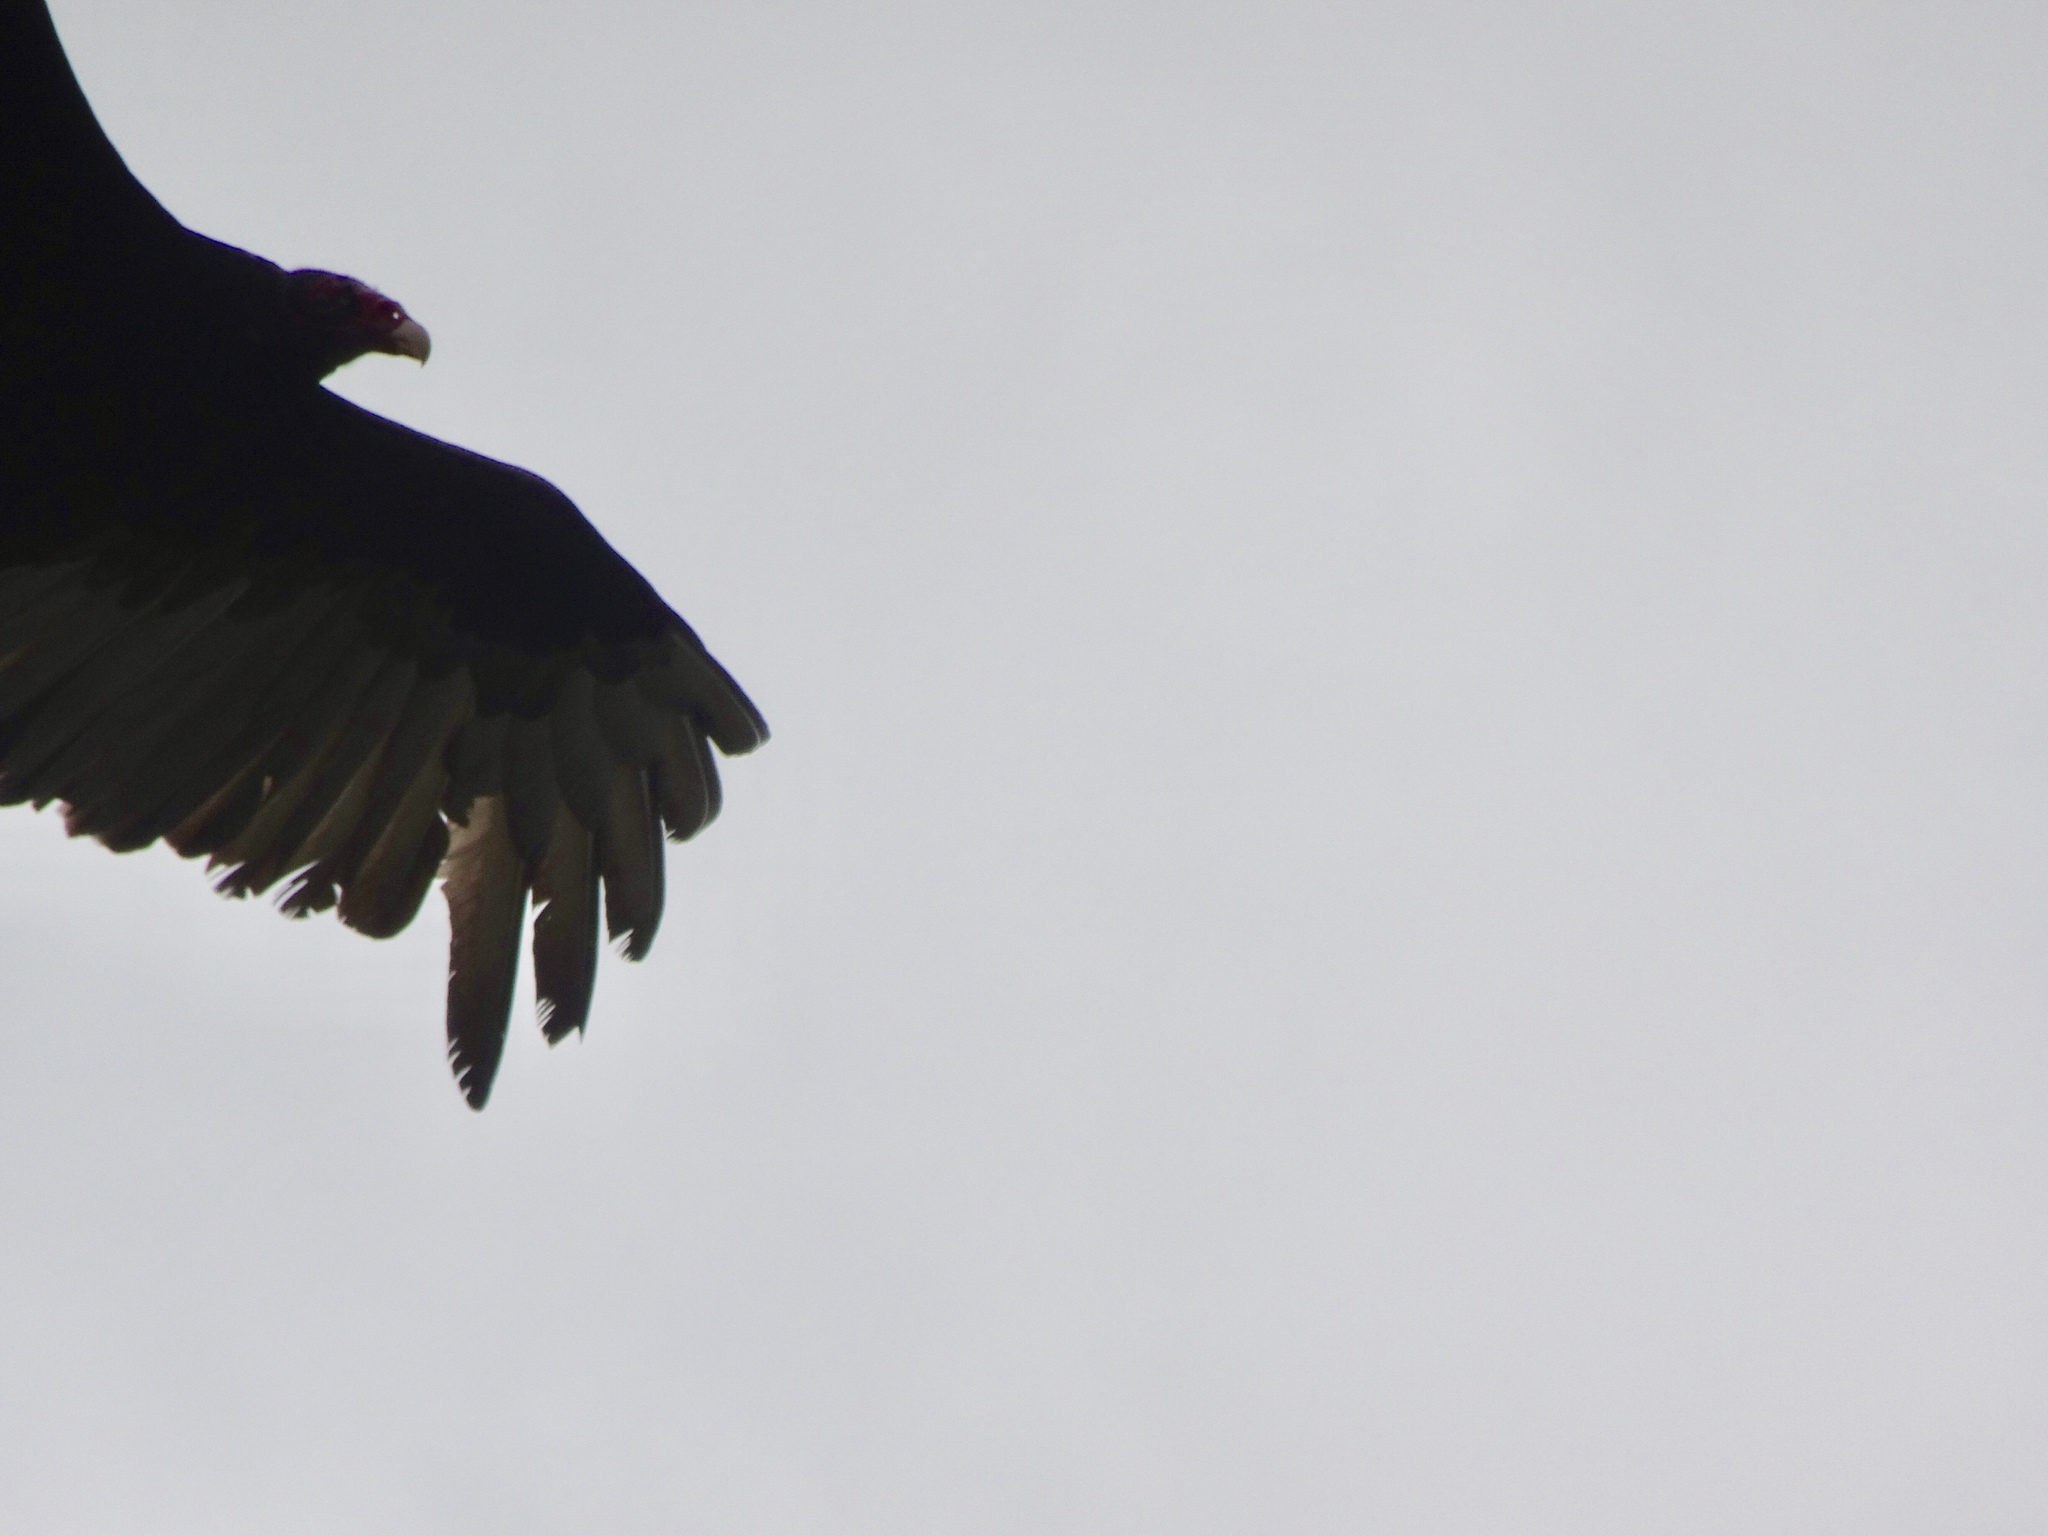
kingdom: Animalia
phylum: Chordata
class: Aves
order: Accipitriformes
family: Cathartidae
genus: Cathartes
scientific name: Cathartes aura
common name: Turkey vulture
